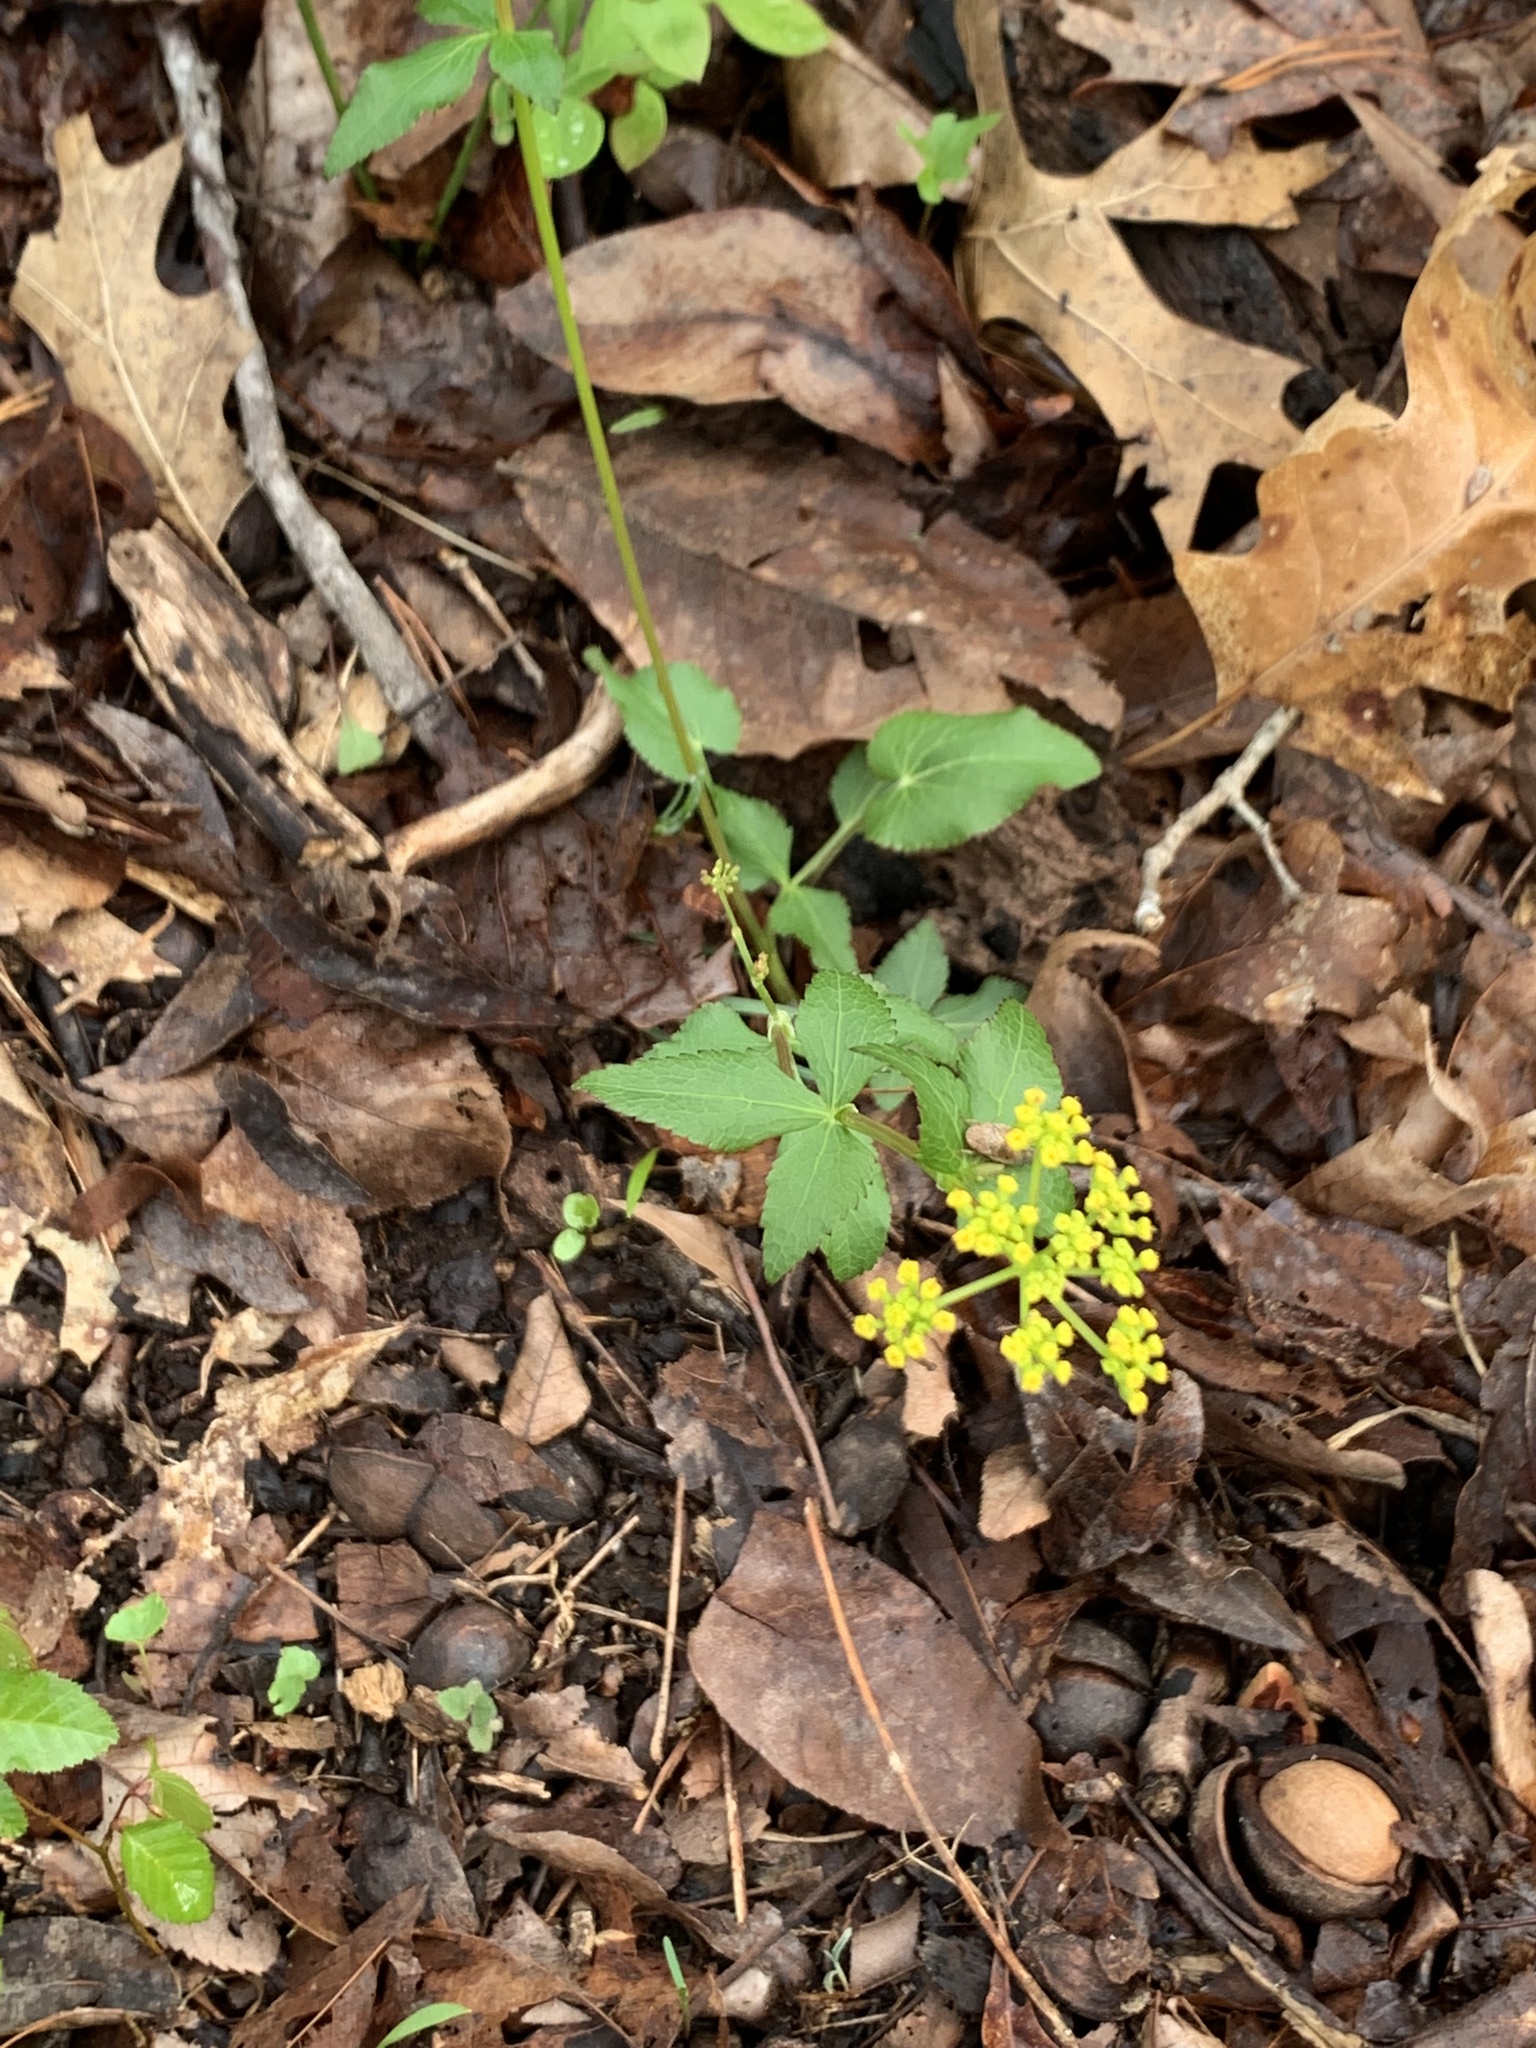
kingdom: Plantae
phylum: Tracheophyta
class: Magnoliopsida
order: Apiales
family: Apiaceae
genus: Zizia
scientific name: Zizia aurea
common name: Golden alexanders
